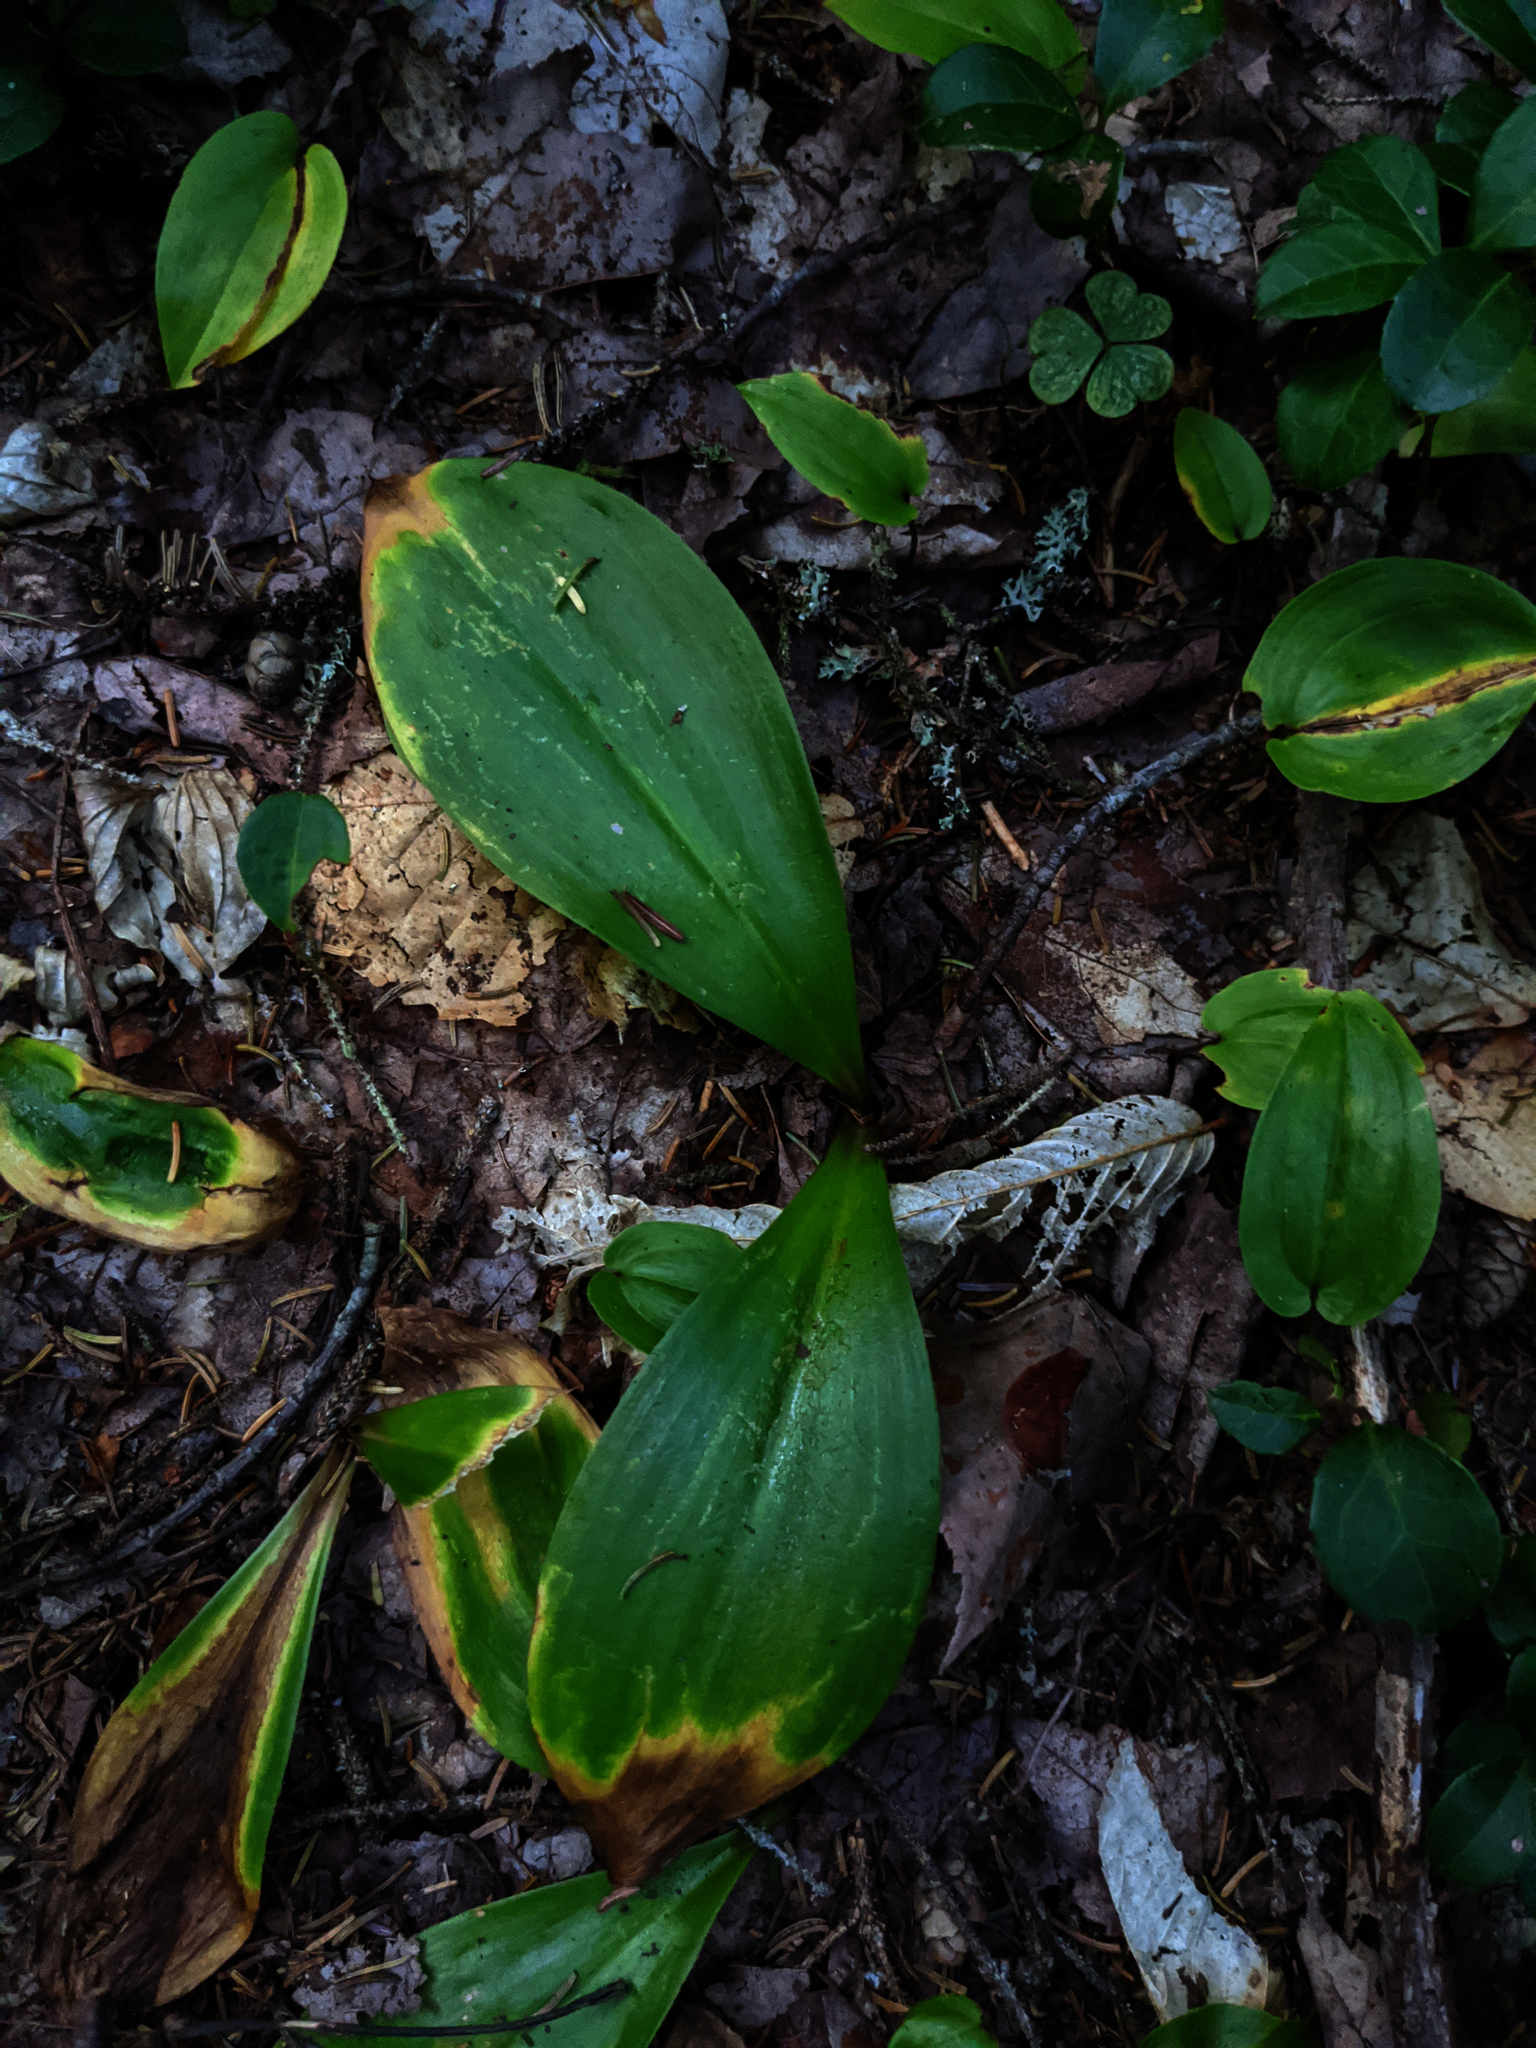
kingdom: Plantae
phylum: Tracheophyta
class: Liliopsida
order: Liliales
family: Liliaceae
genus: Clintonia
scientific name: Clintonia borealis
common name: Yellow clintonia
